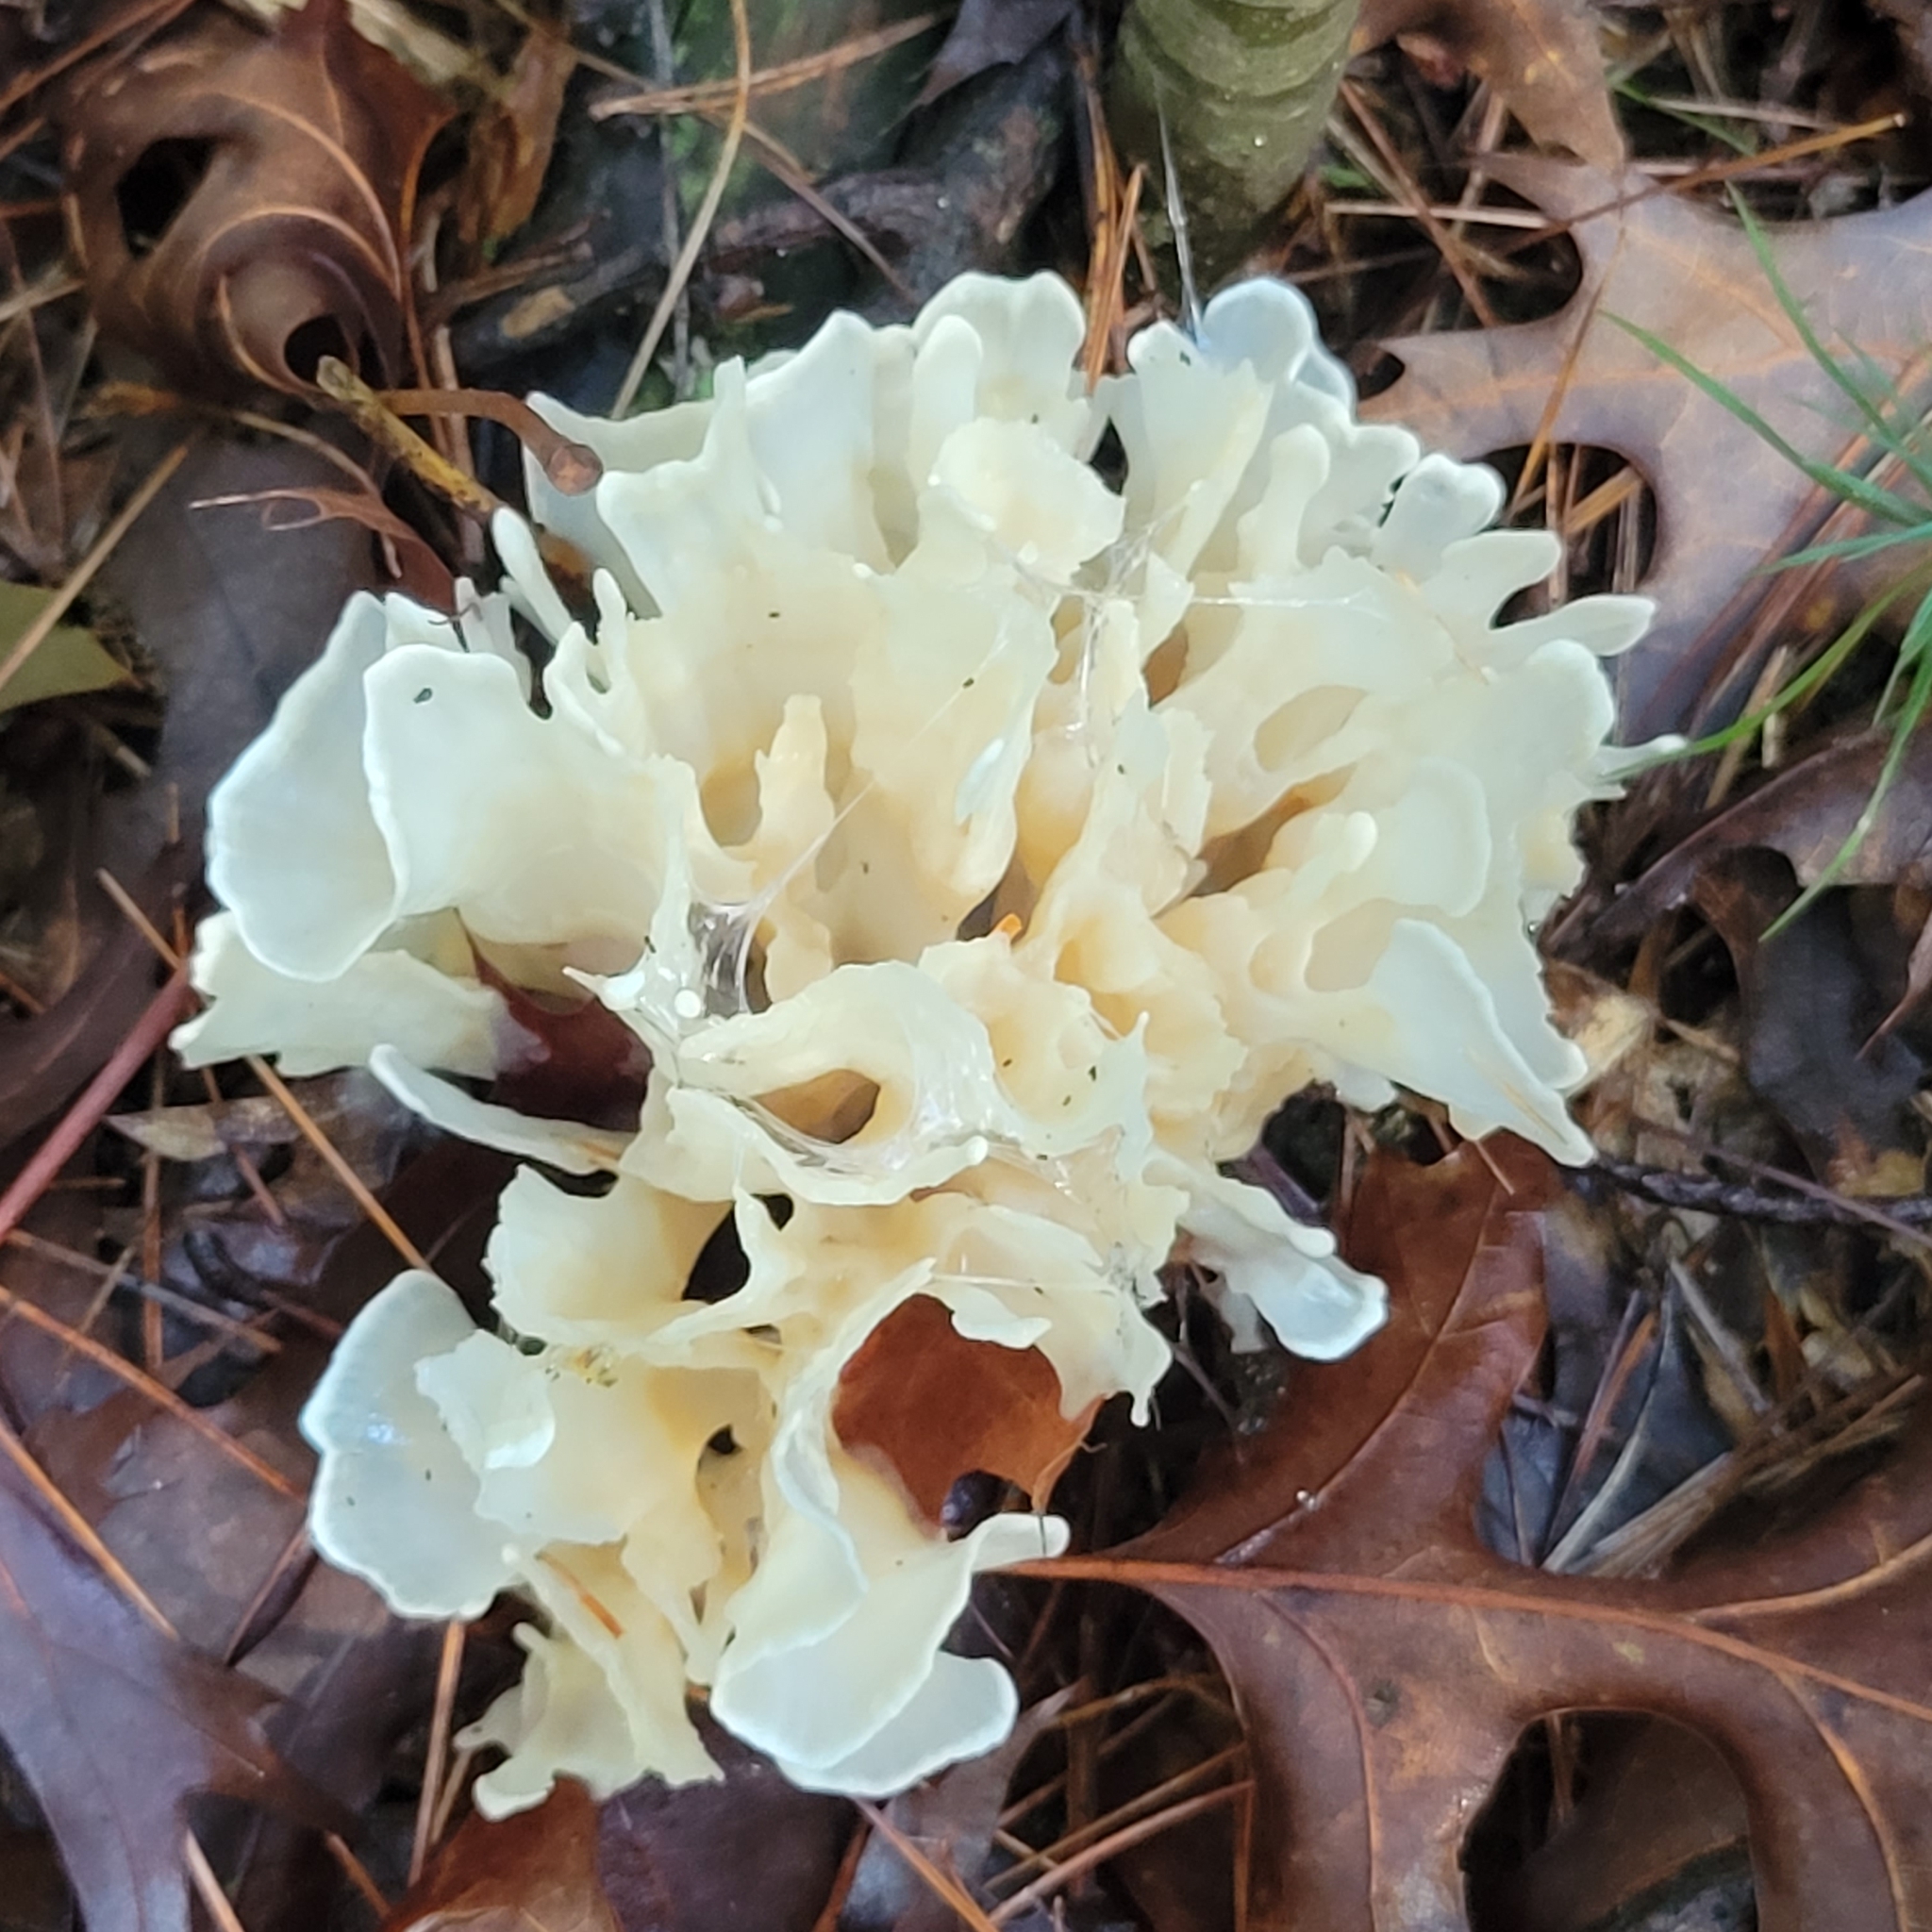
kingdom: Fungi
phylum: Basidiomycota
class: Agaricomycetes
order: Polyporales
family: Sparassidaceae
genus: Sparassis
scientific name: Sparassis spathulata
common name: Eastern cauliflower mushroom
